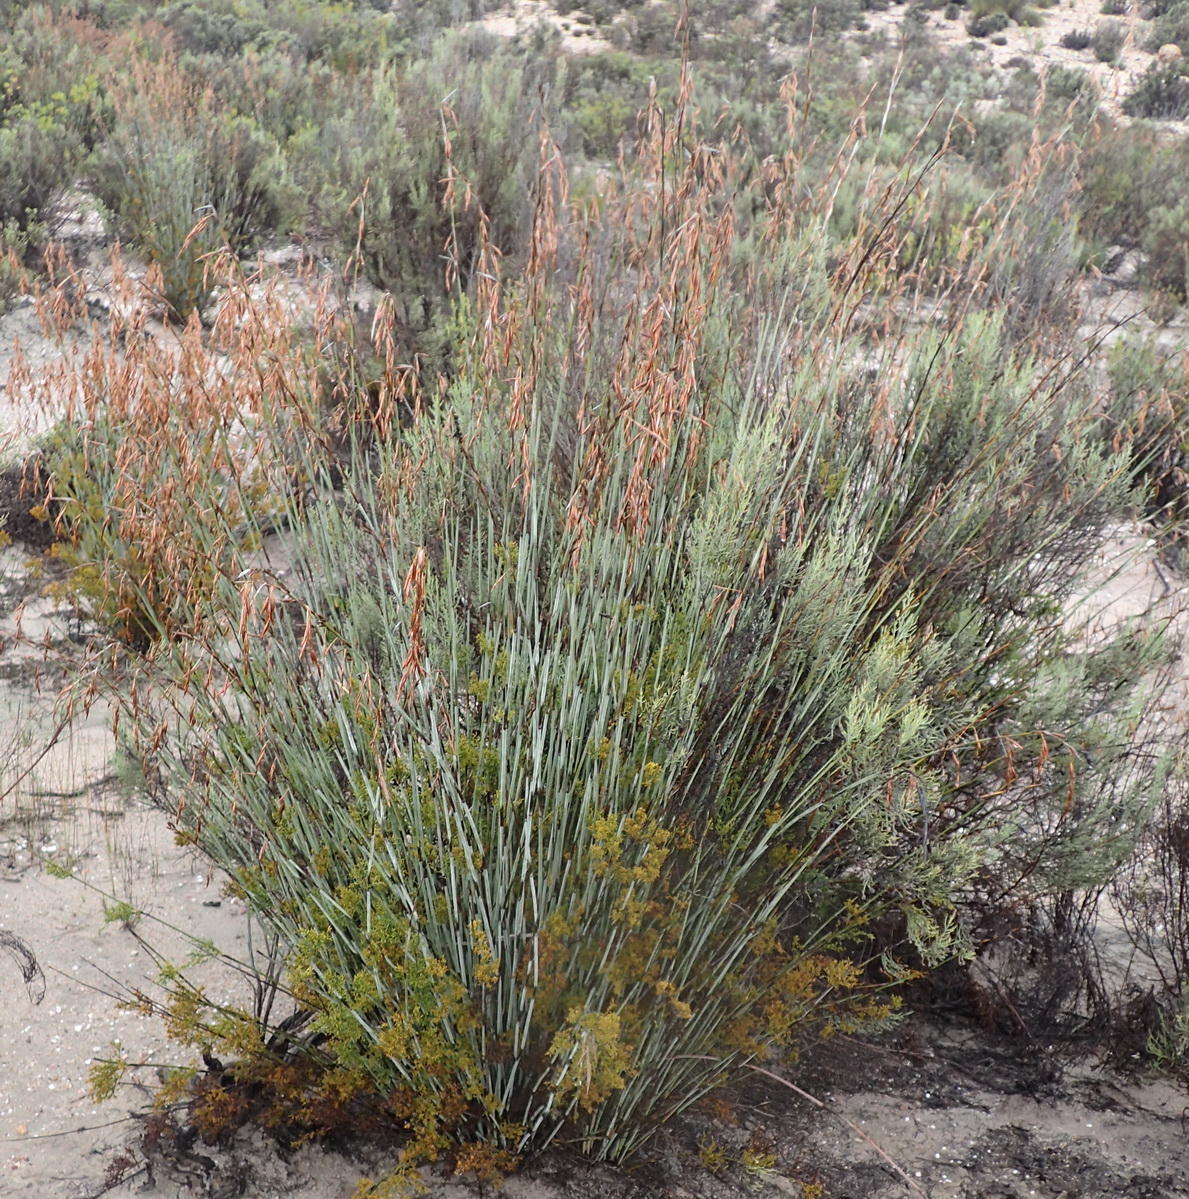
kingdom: Plantae
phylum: Tracheophyta
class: Liliopsida
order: Poales
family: Restionaceae
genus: Thamnochortus
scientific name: Thamnochortus rigidus
